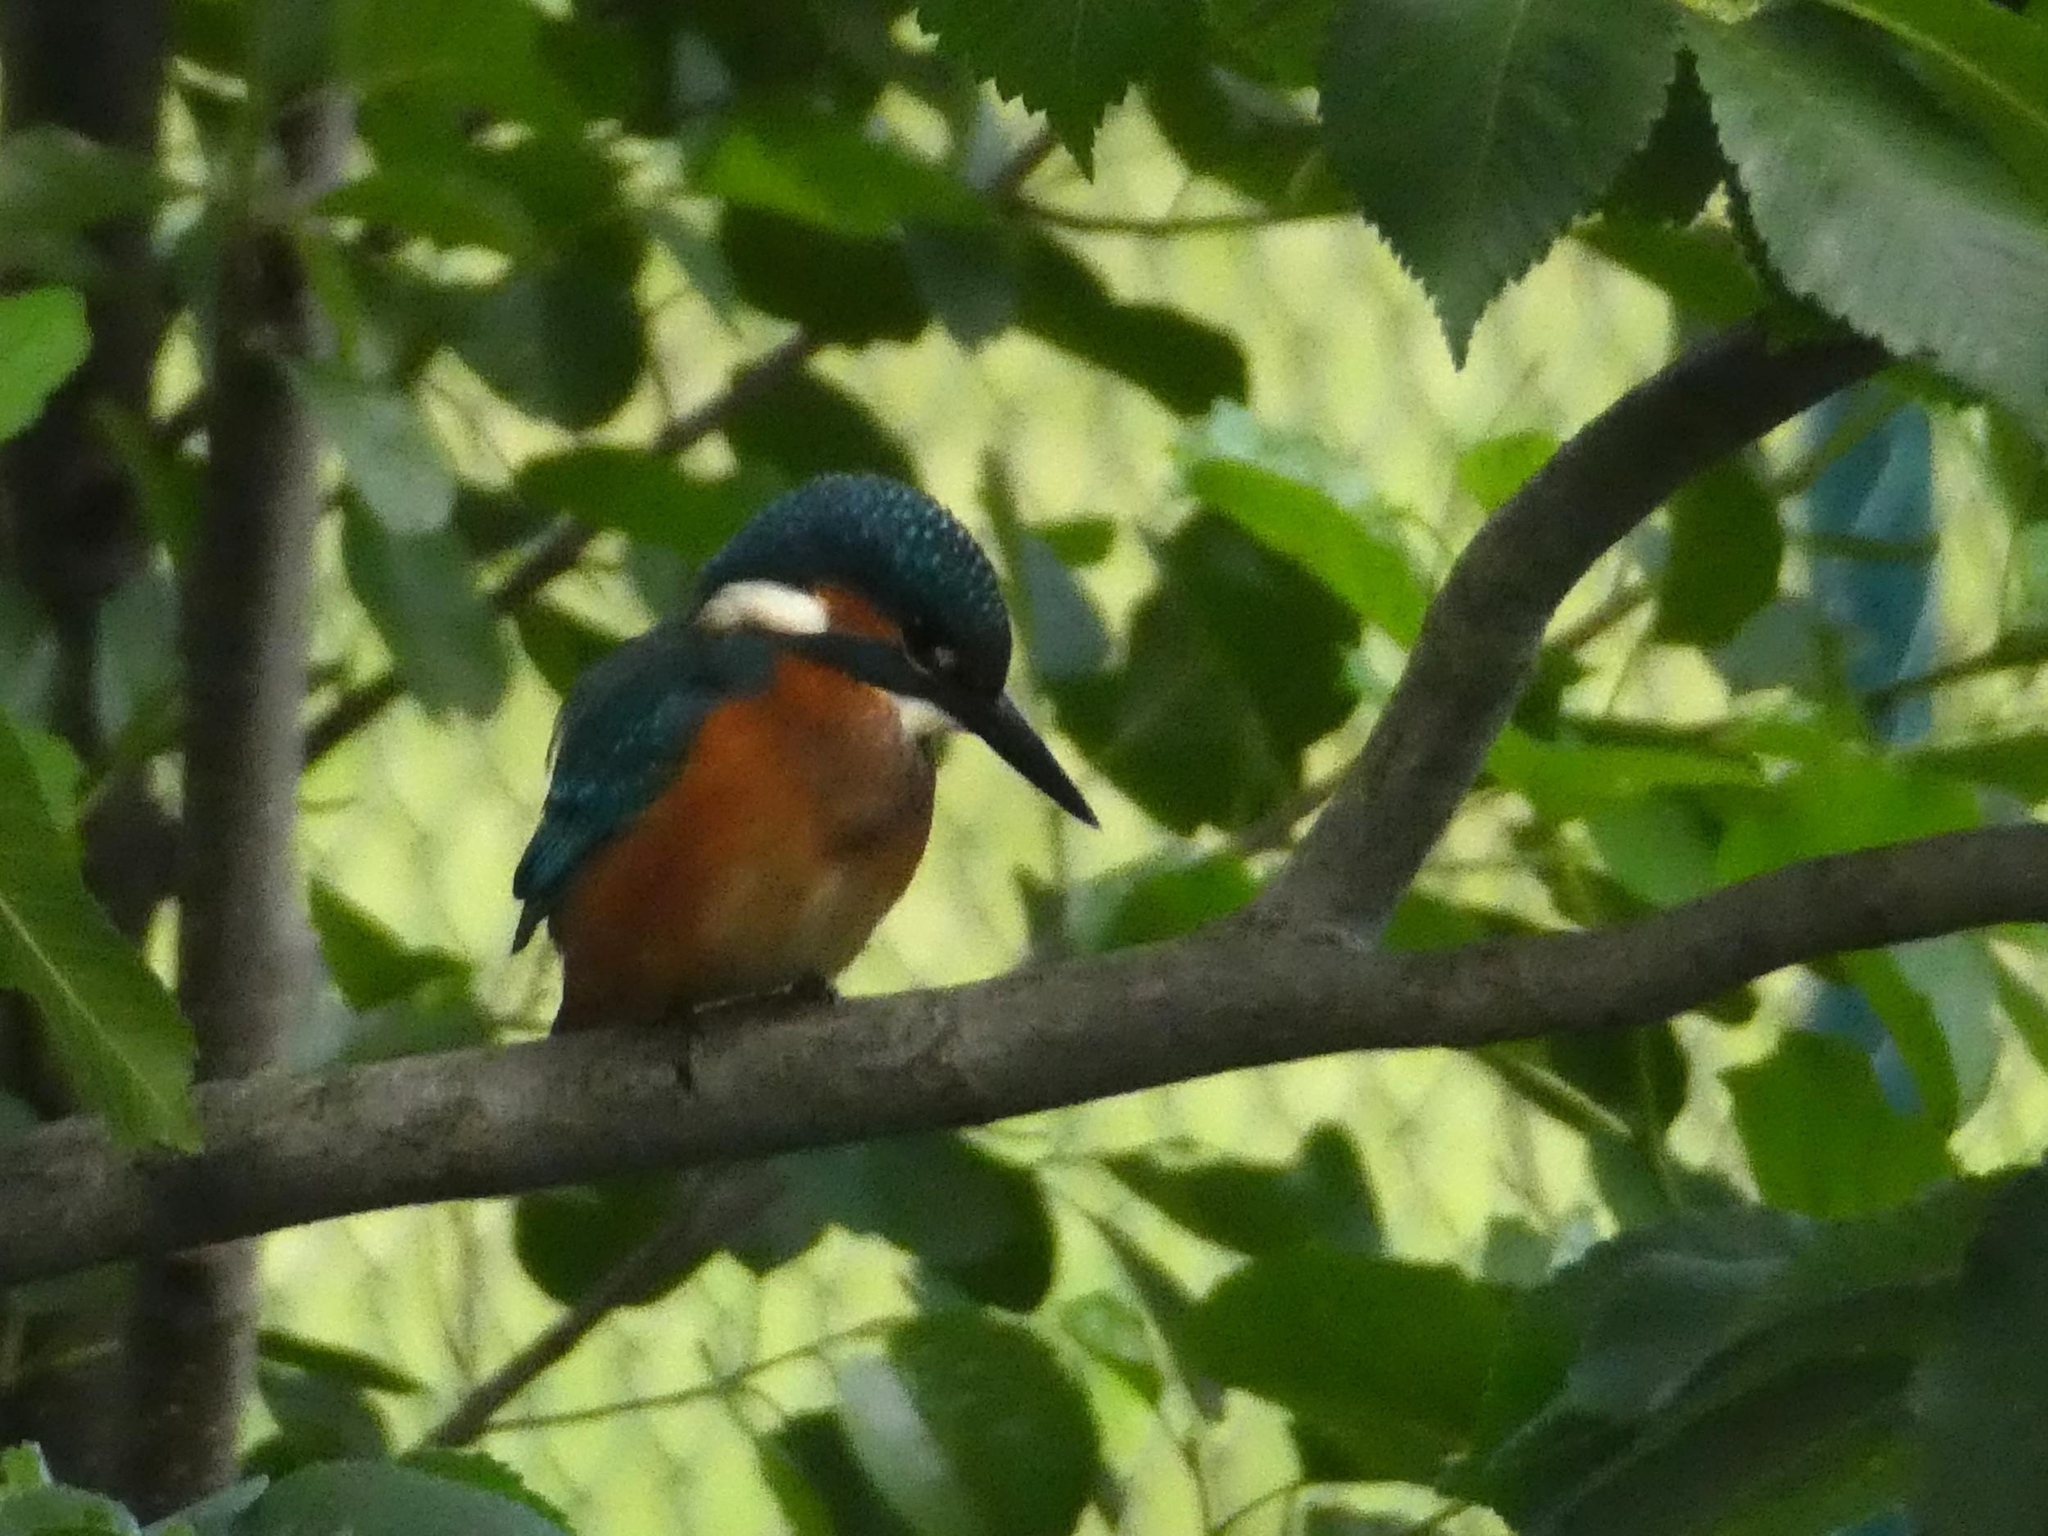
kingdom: Animalia
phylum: Chordata
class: Aves
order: Coraciiformes
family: Alcedinidae
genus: Alcedo
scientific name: Alcedo atthis
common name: Common kingfisher
